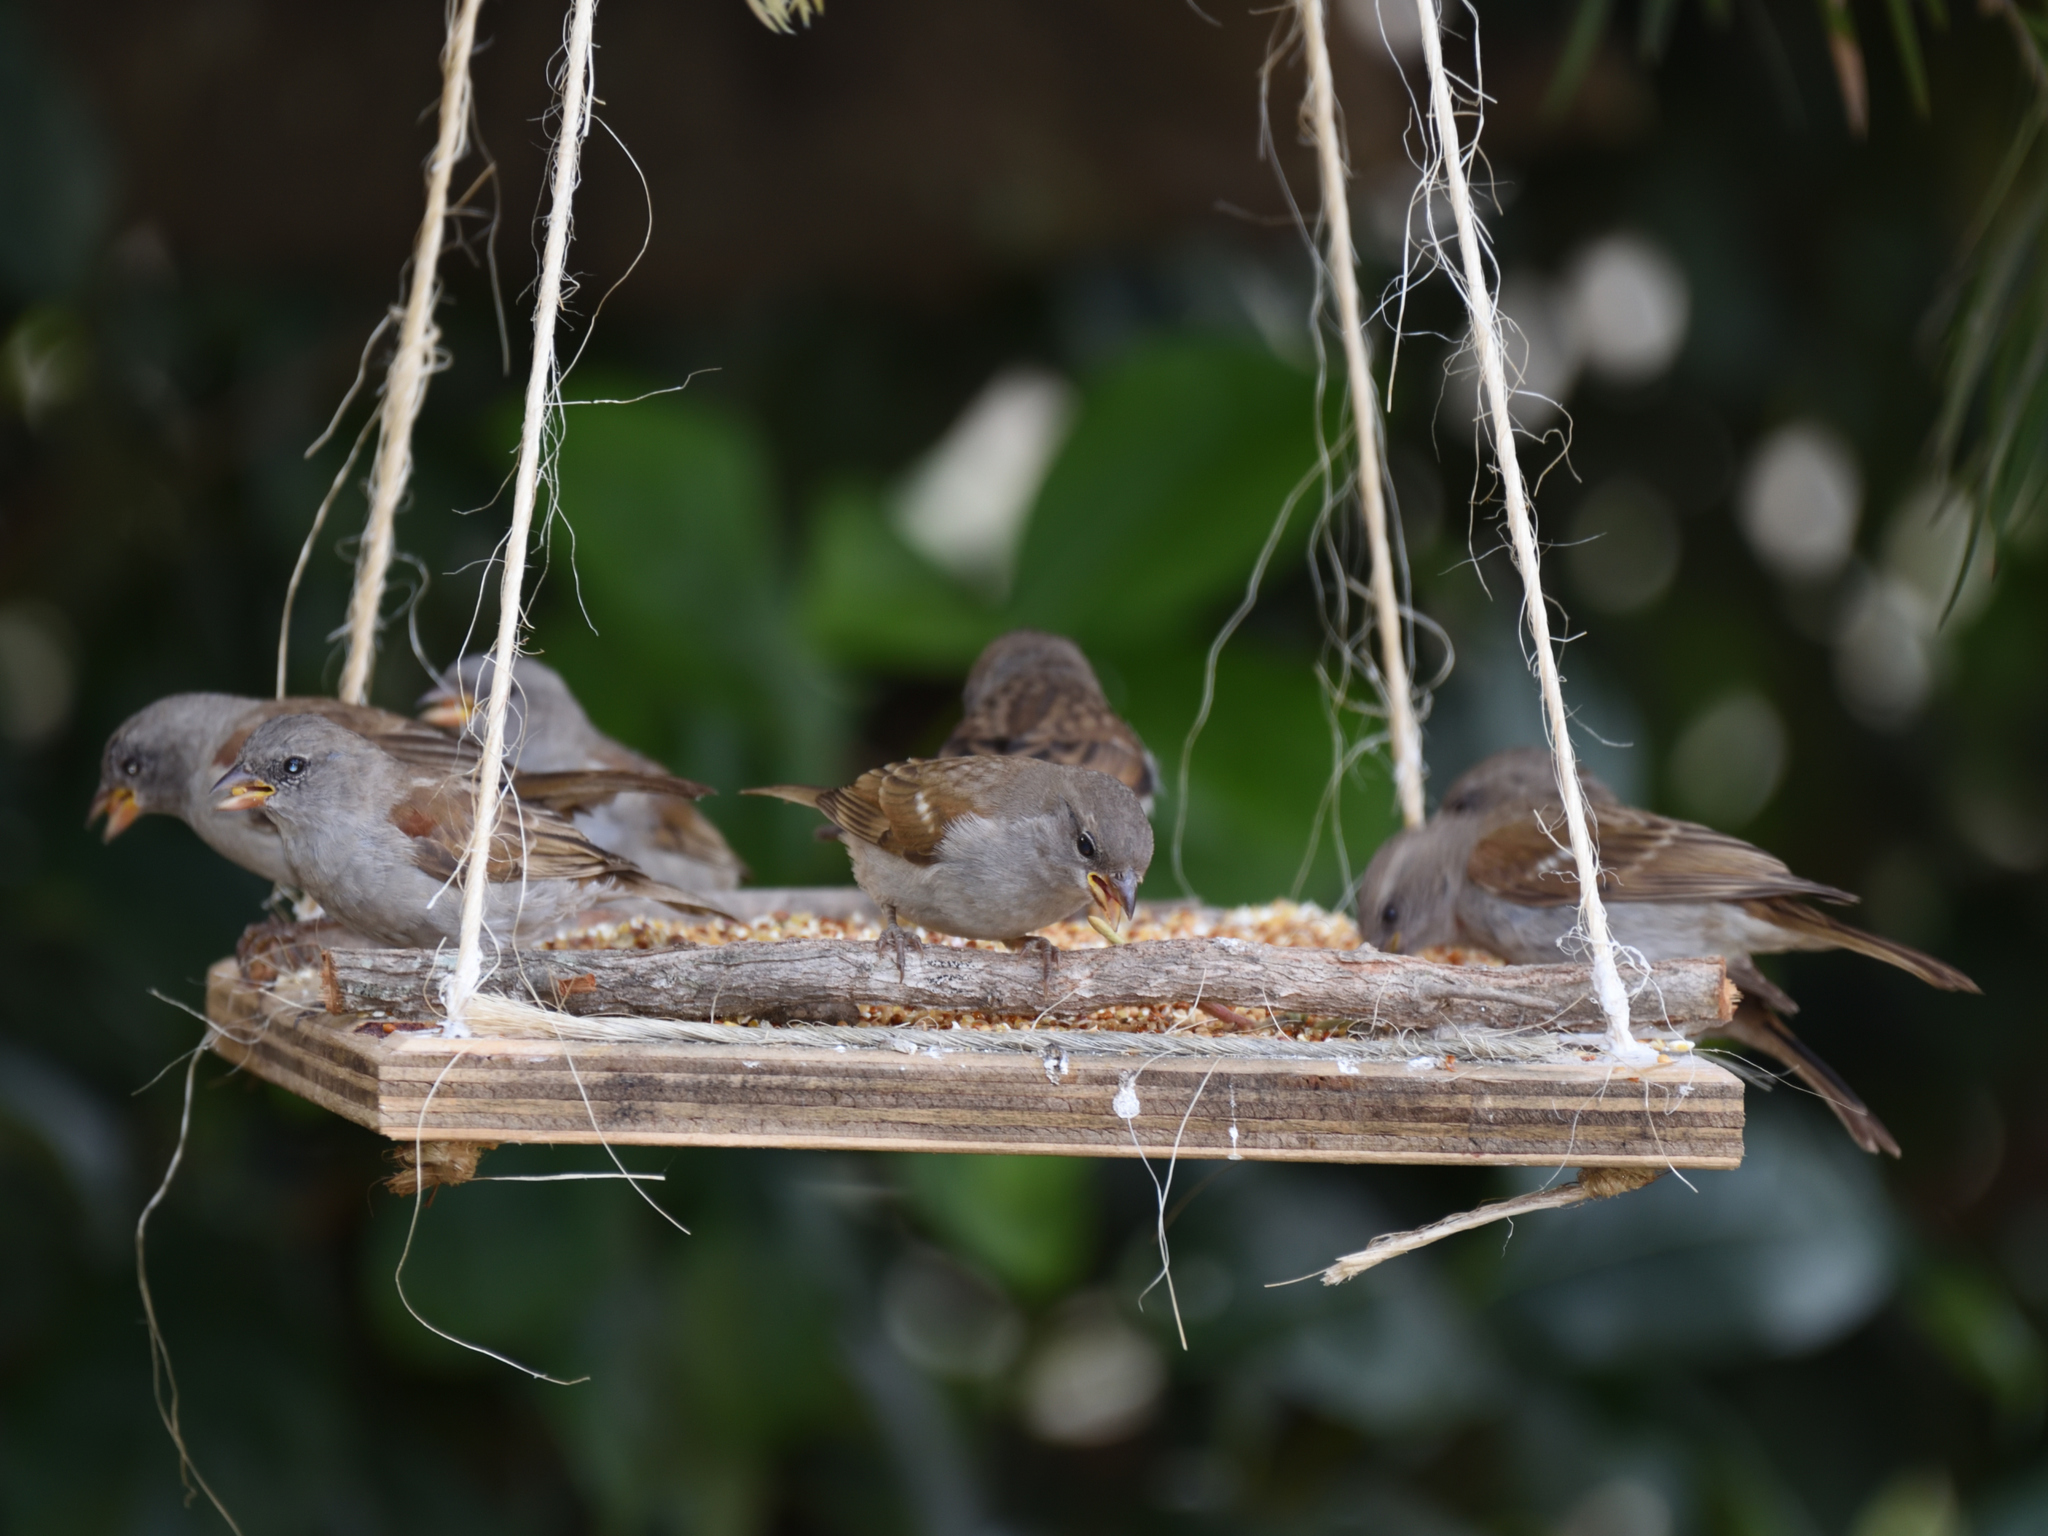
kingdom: Animalia
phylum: Chordata
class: Aves
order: Passeriformes
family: Passeridae
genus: Passer
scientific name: Passer diffusus
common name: Southern grey-headed sparrow
